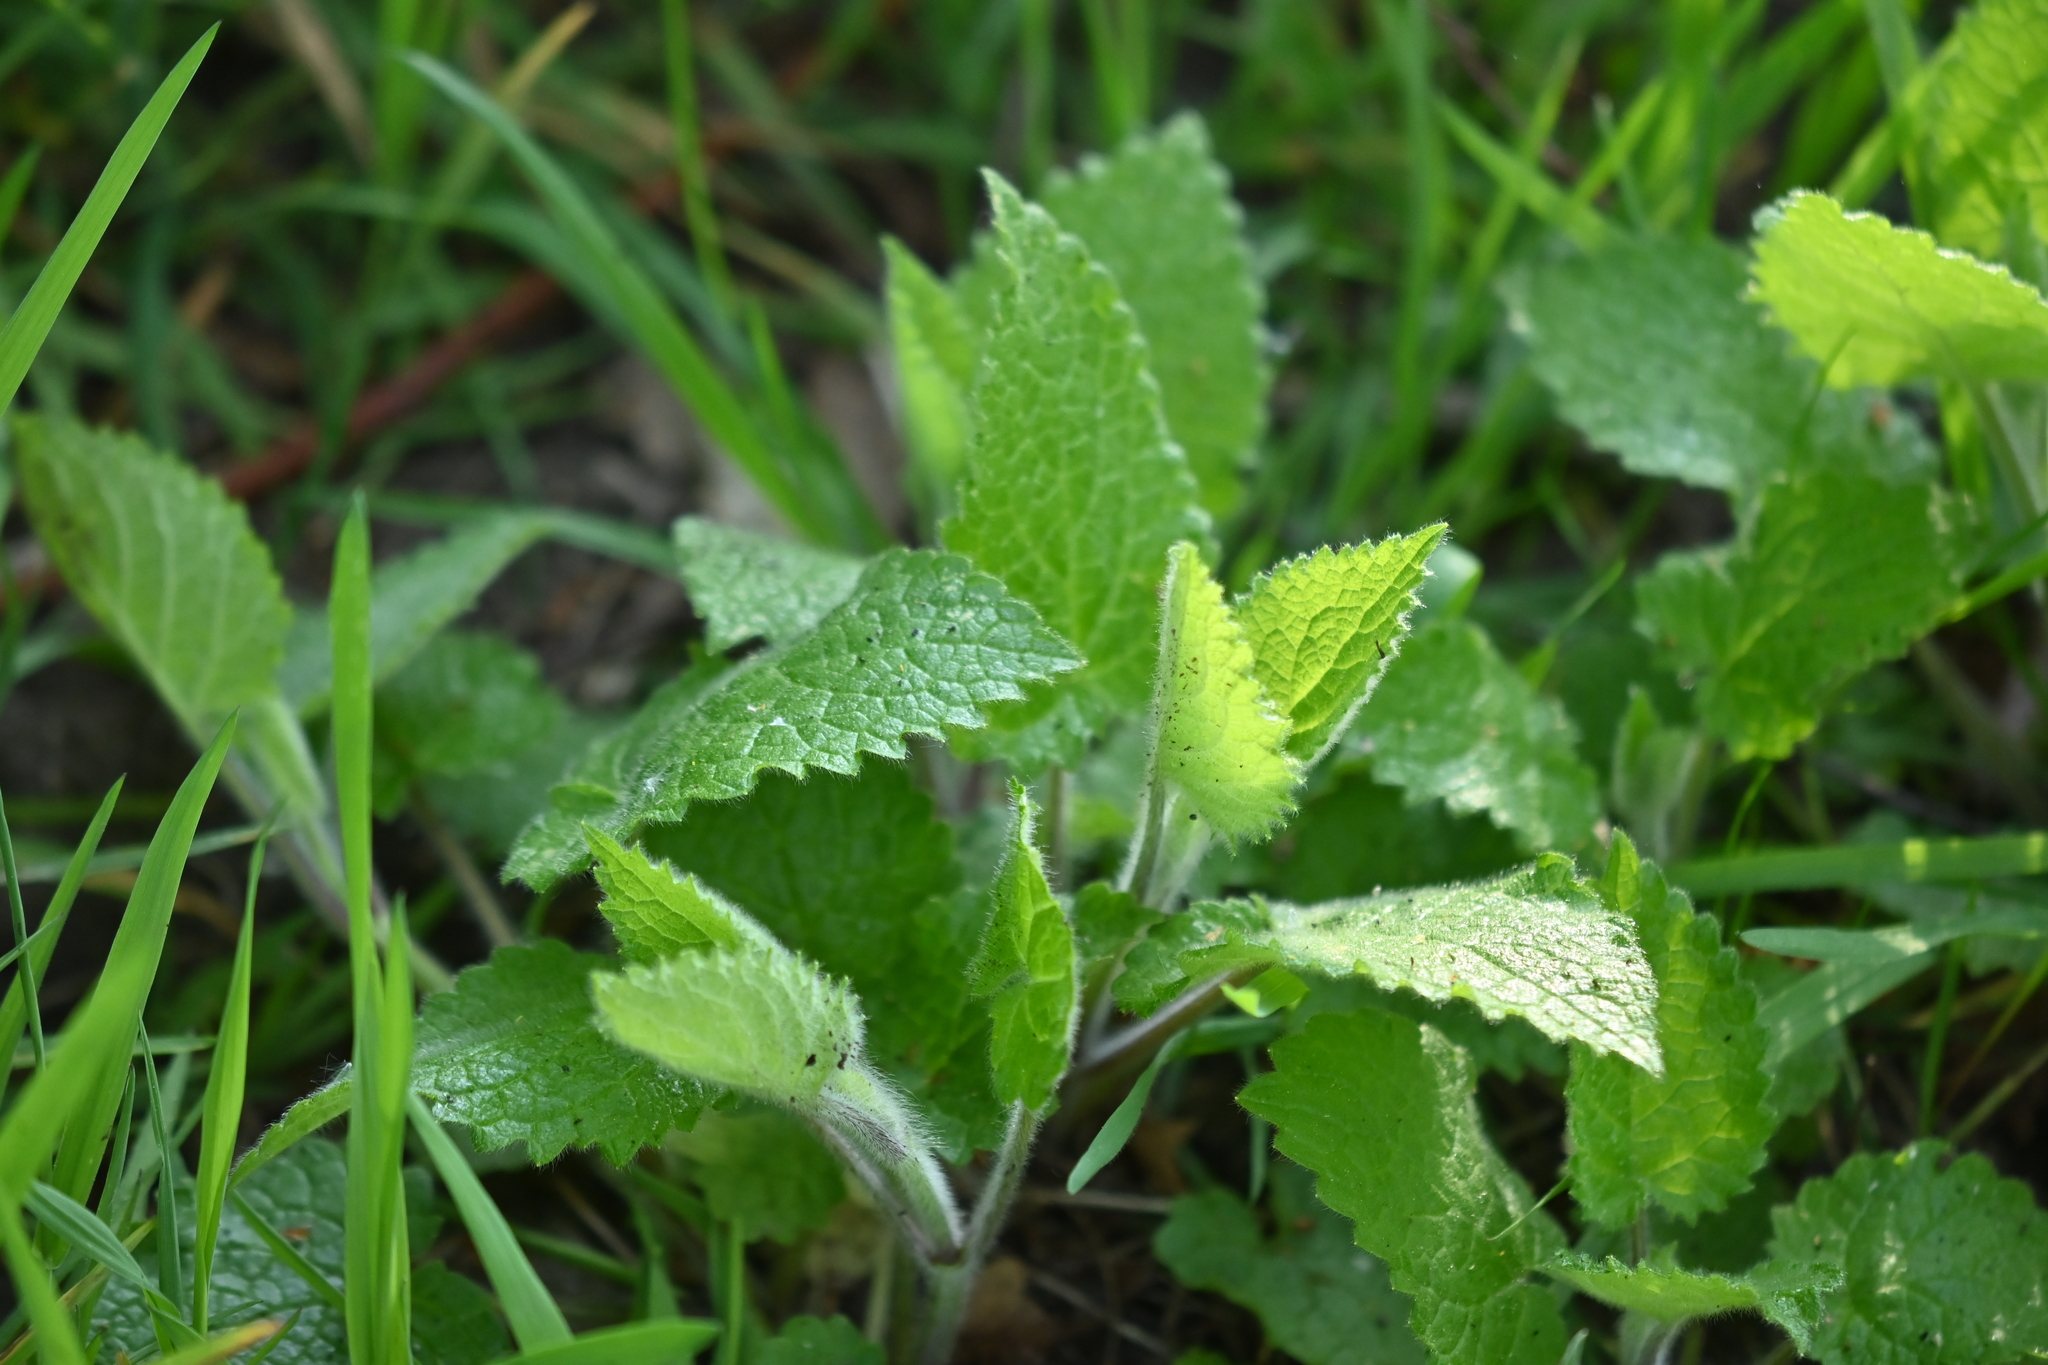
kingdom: Plantae
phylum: Tracheophyta
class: Magnoliopsida
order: Lamiales
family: Lamiaceae
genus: Stachys
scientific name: Stachys sylvatica
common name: Hedge woundwort
